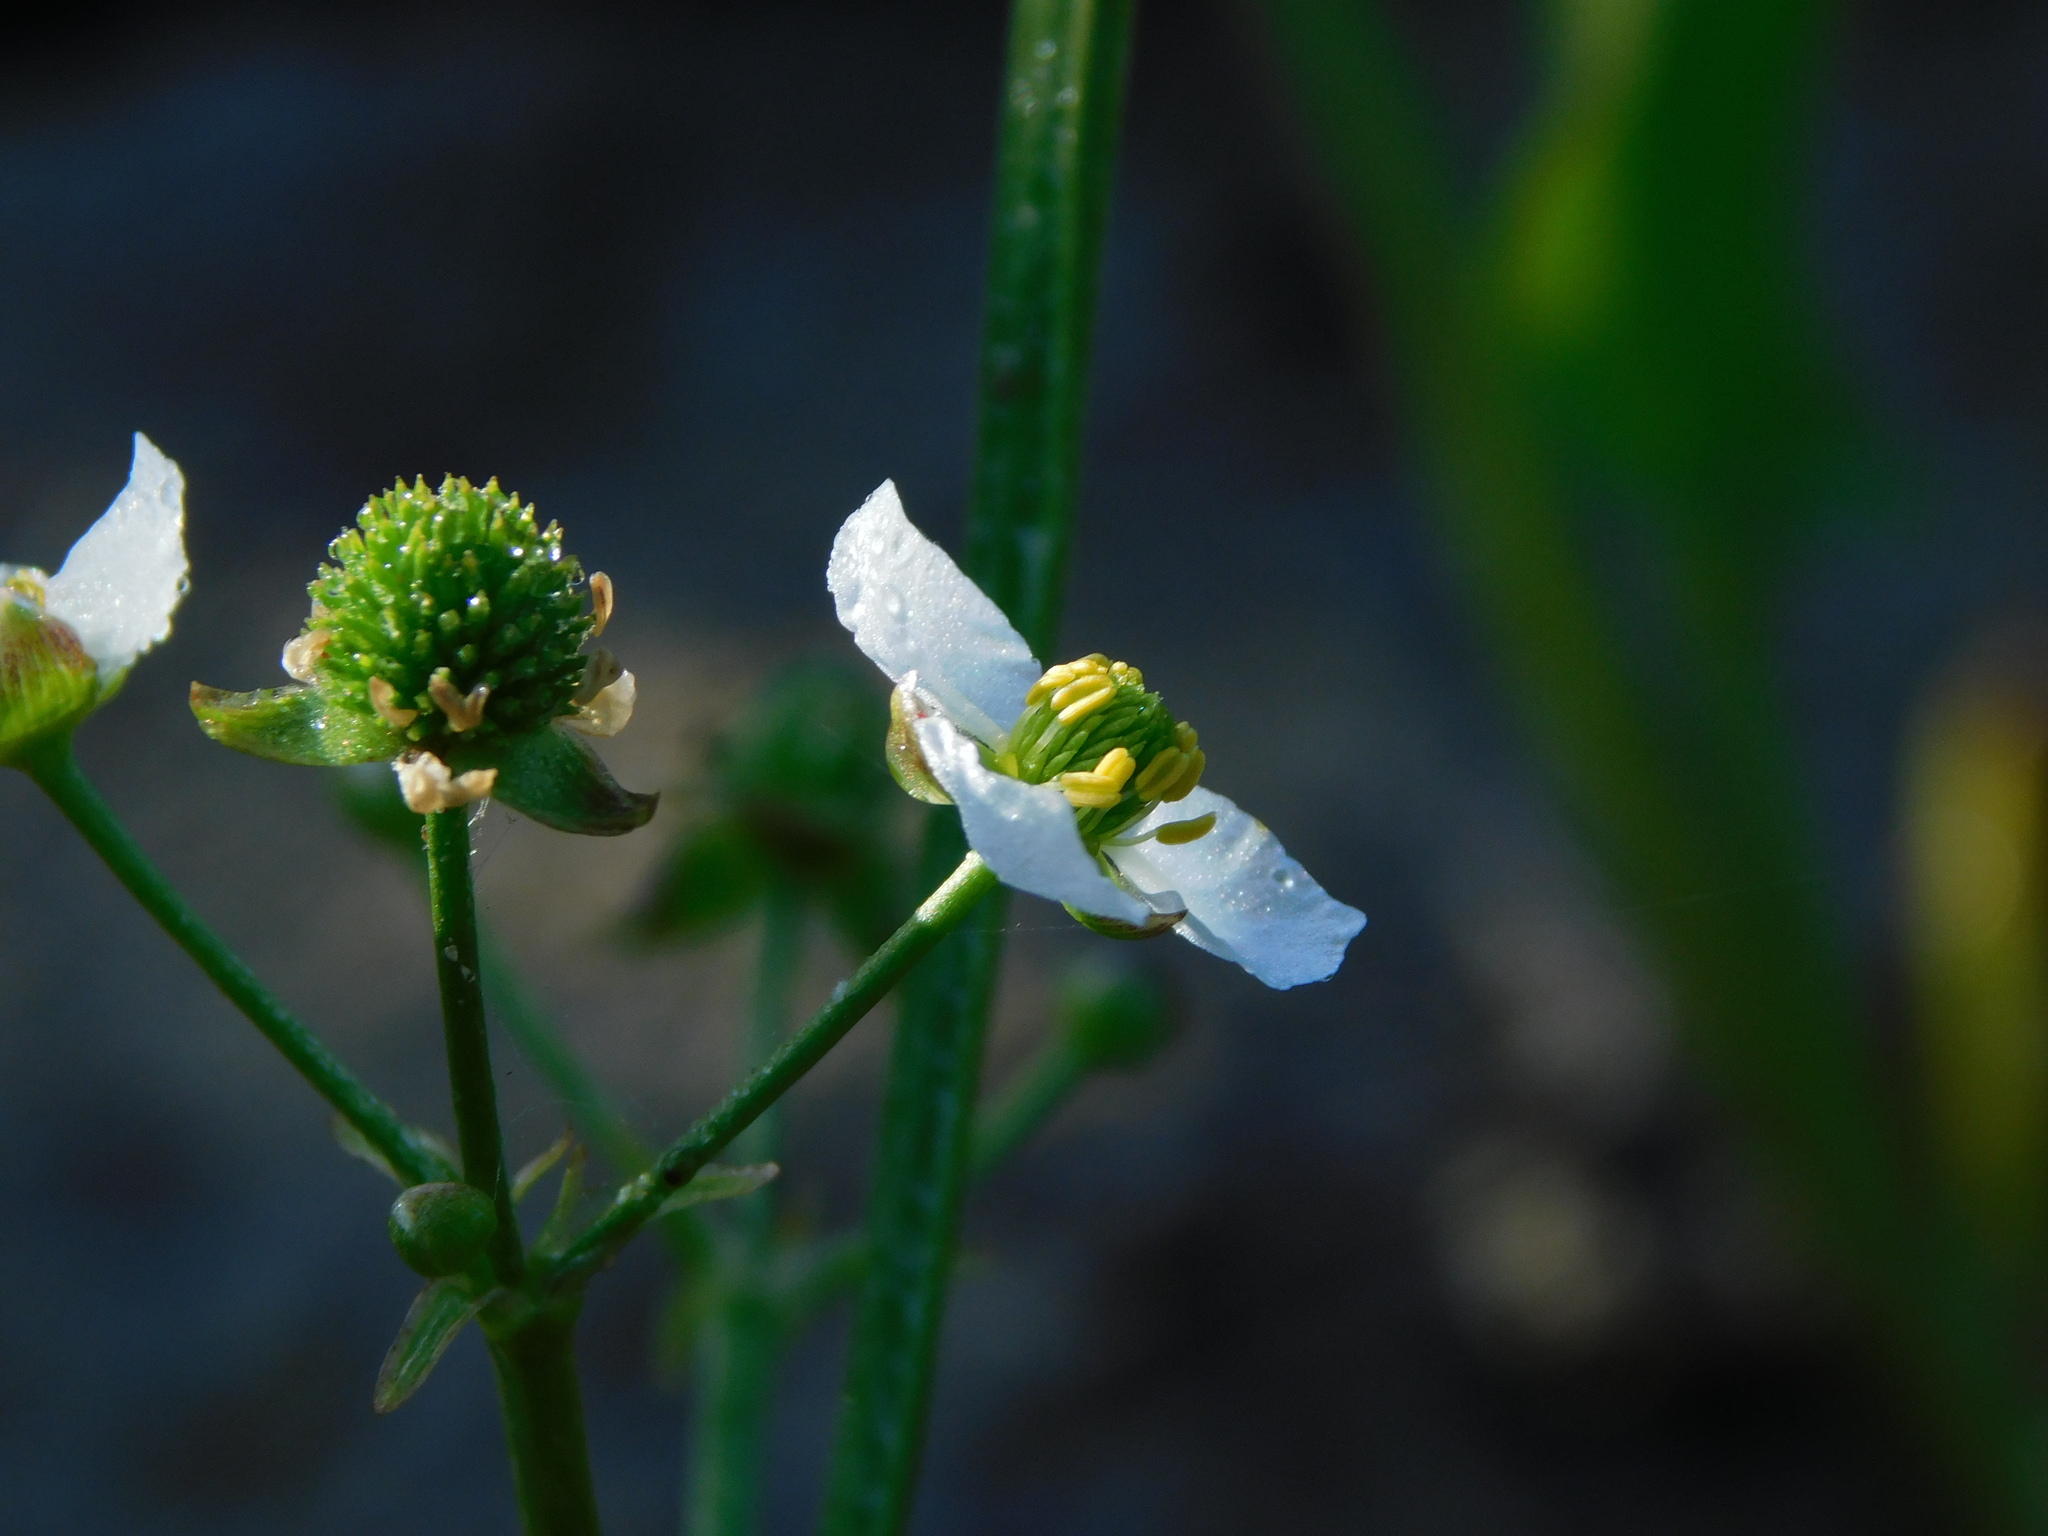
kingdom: Plantae
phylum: Tracheophyta
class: Liliopsida
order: Alismatales
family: Alismataceae
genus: Echinodorus
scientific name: Echinodorus berteroi
